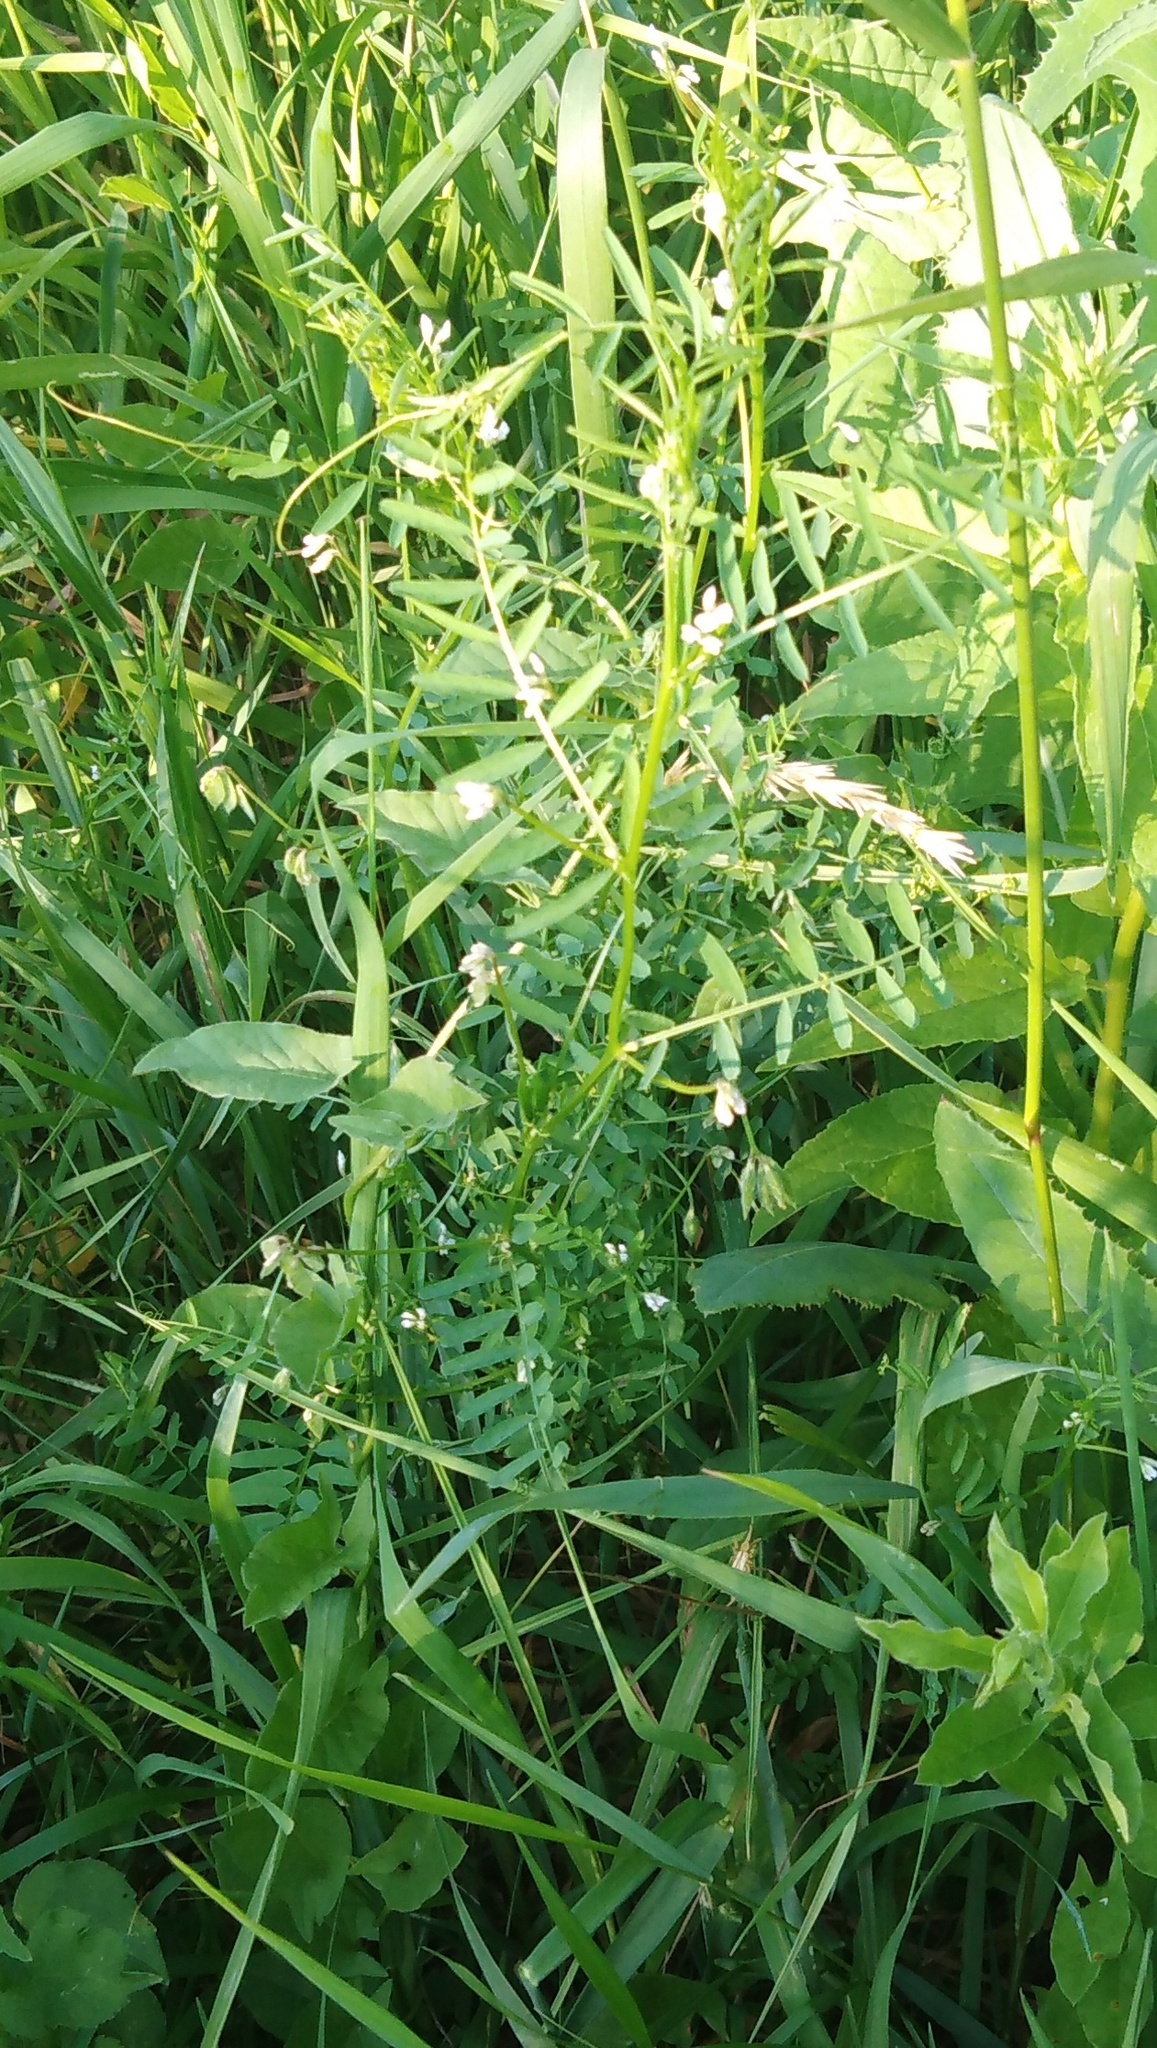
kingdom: Plantae
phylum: Tracheophyta
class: Magnoliopsida
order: Fabales
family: Fabaceae
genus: Vicia
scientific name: Vicia hirsuta
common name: Tiny vetch
